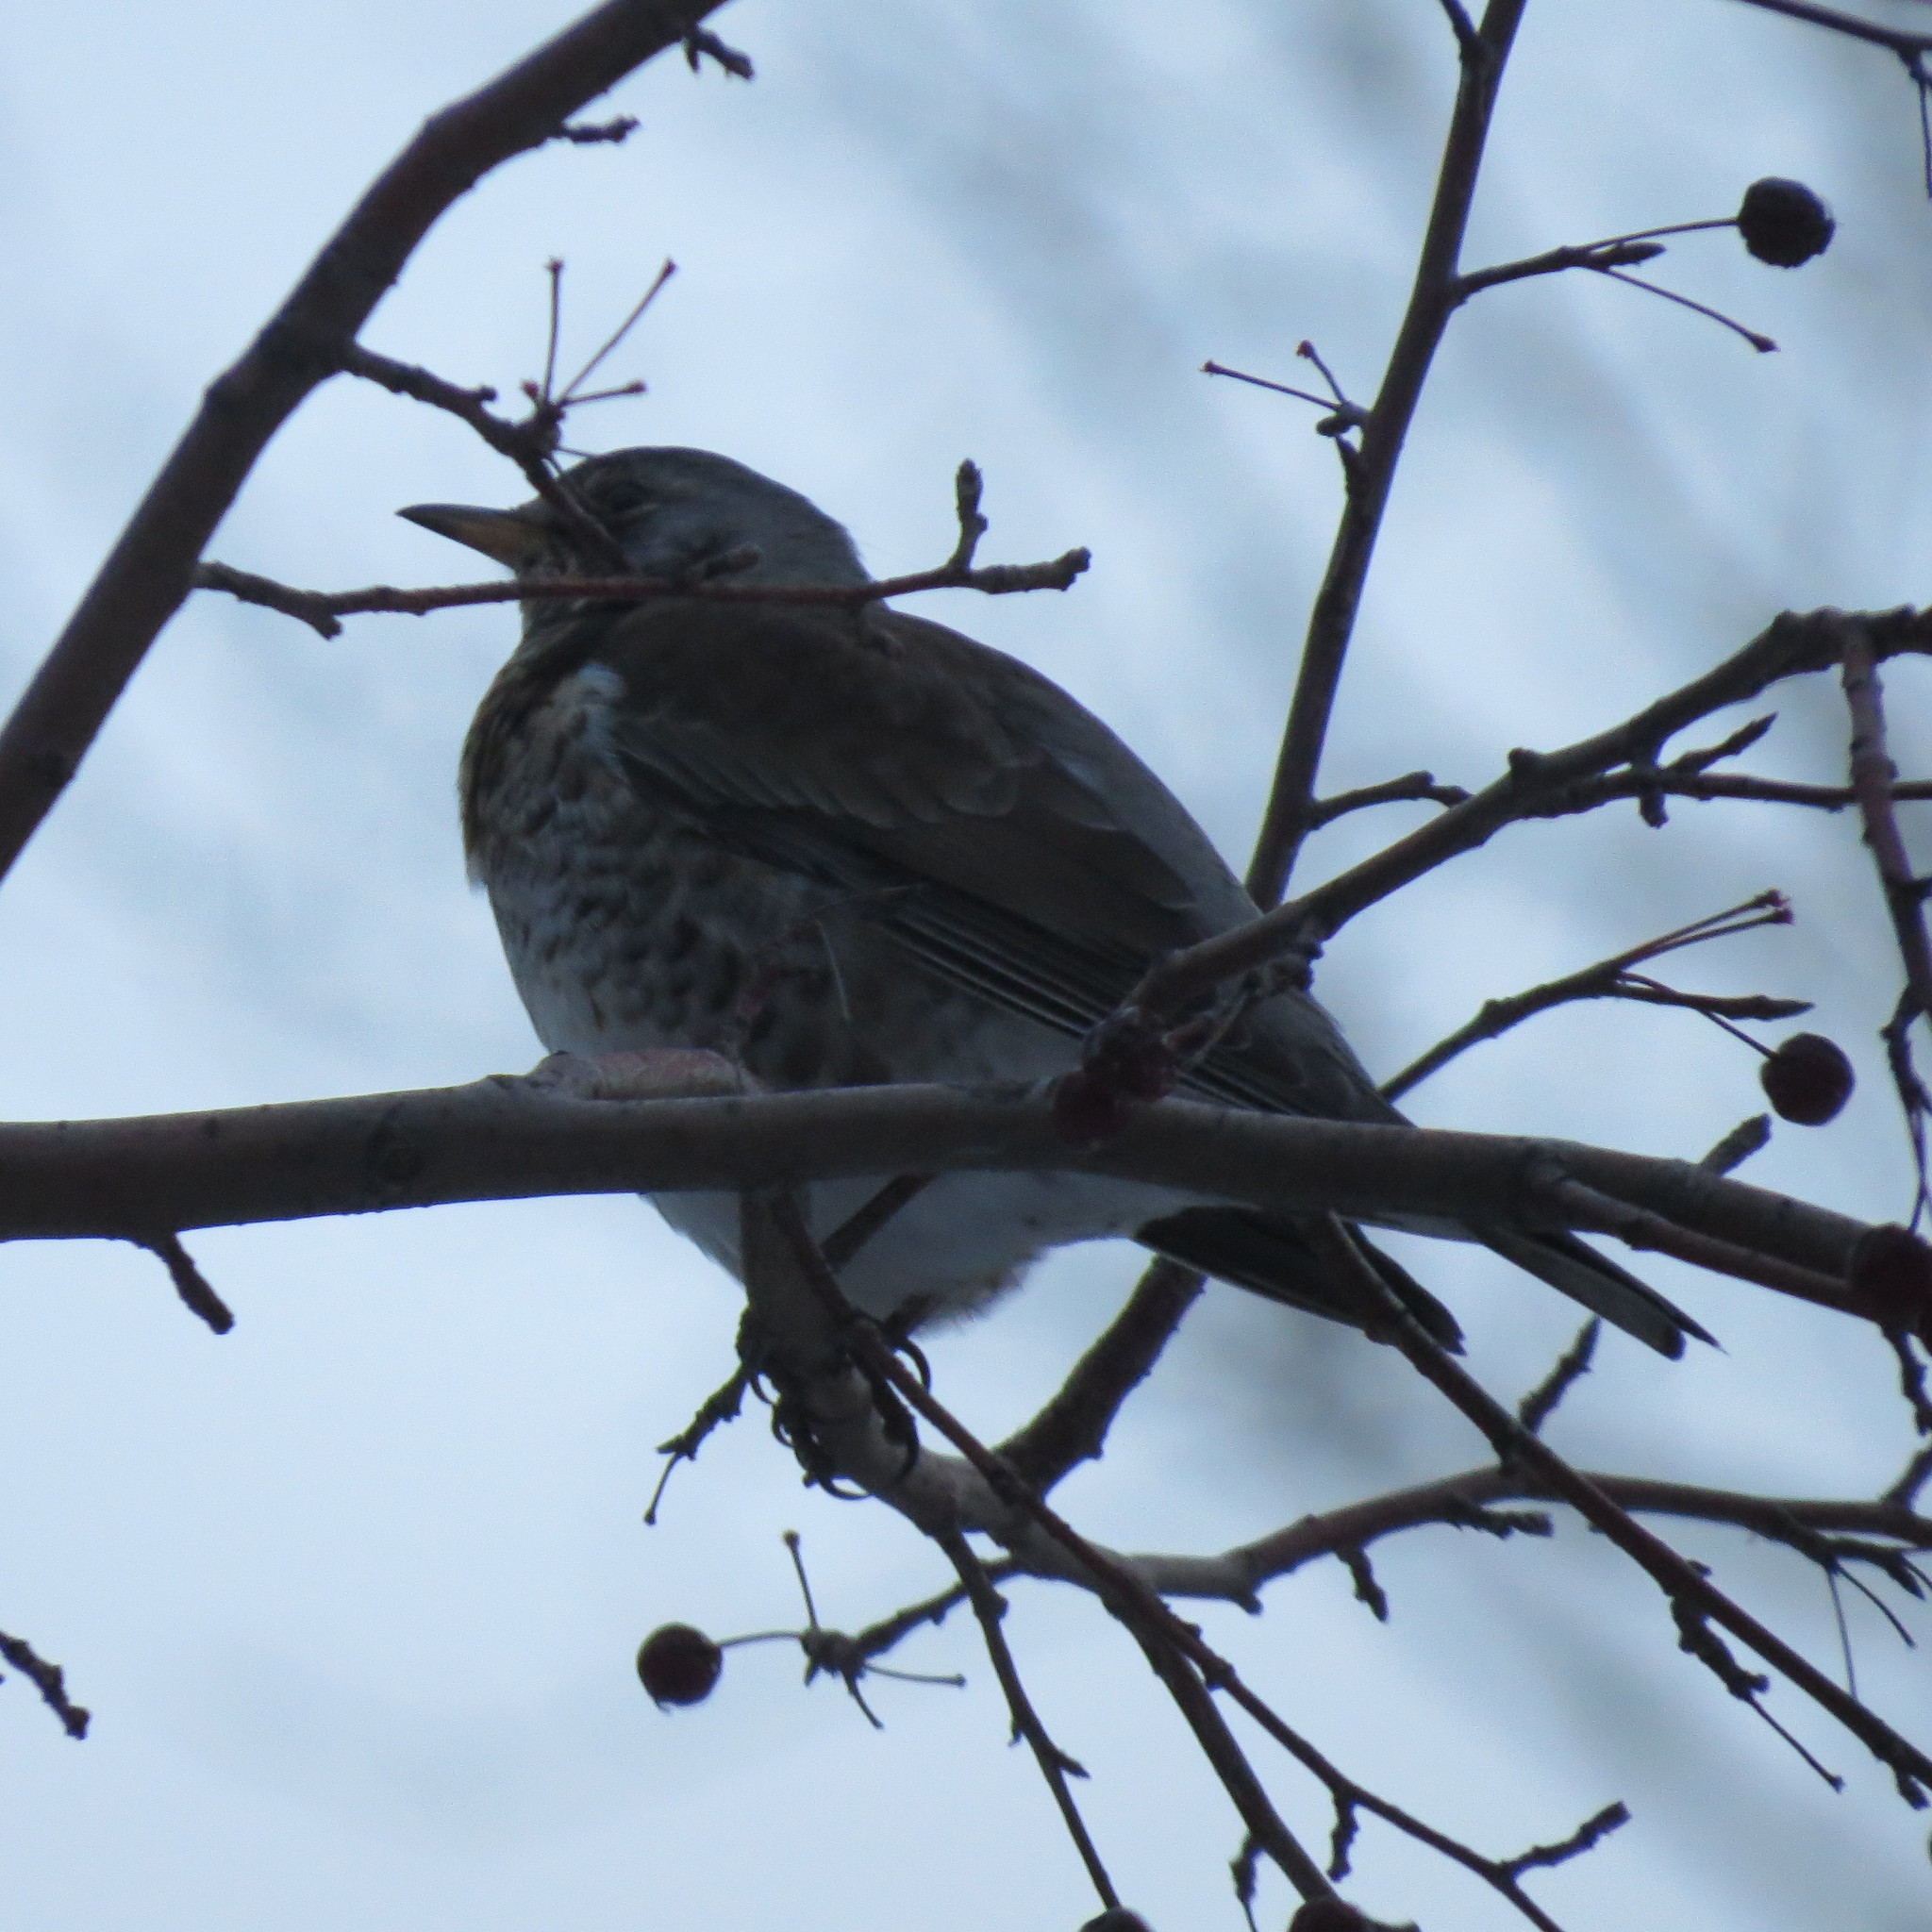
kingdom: Animalia
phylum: Chordata
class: Aves
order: Passeriformes
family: Turdidae
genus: Turdus
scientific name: Turdus pilaris
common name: Fieldfare
